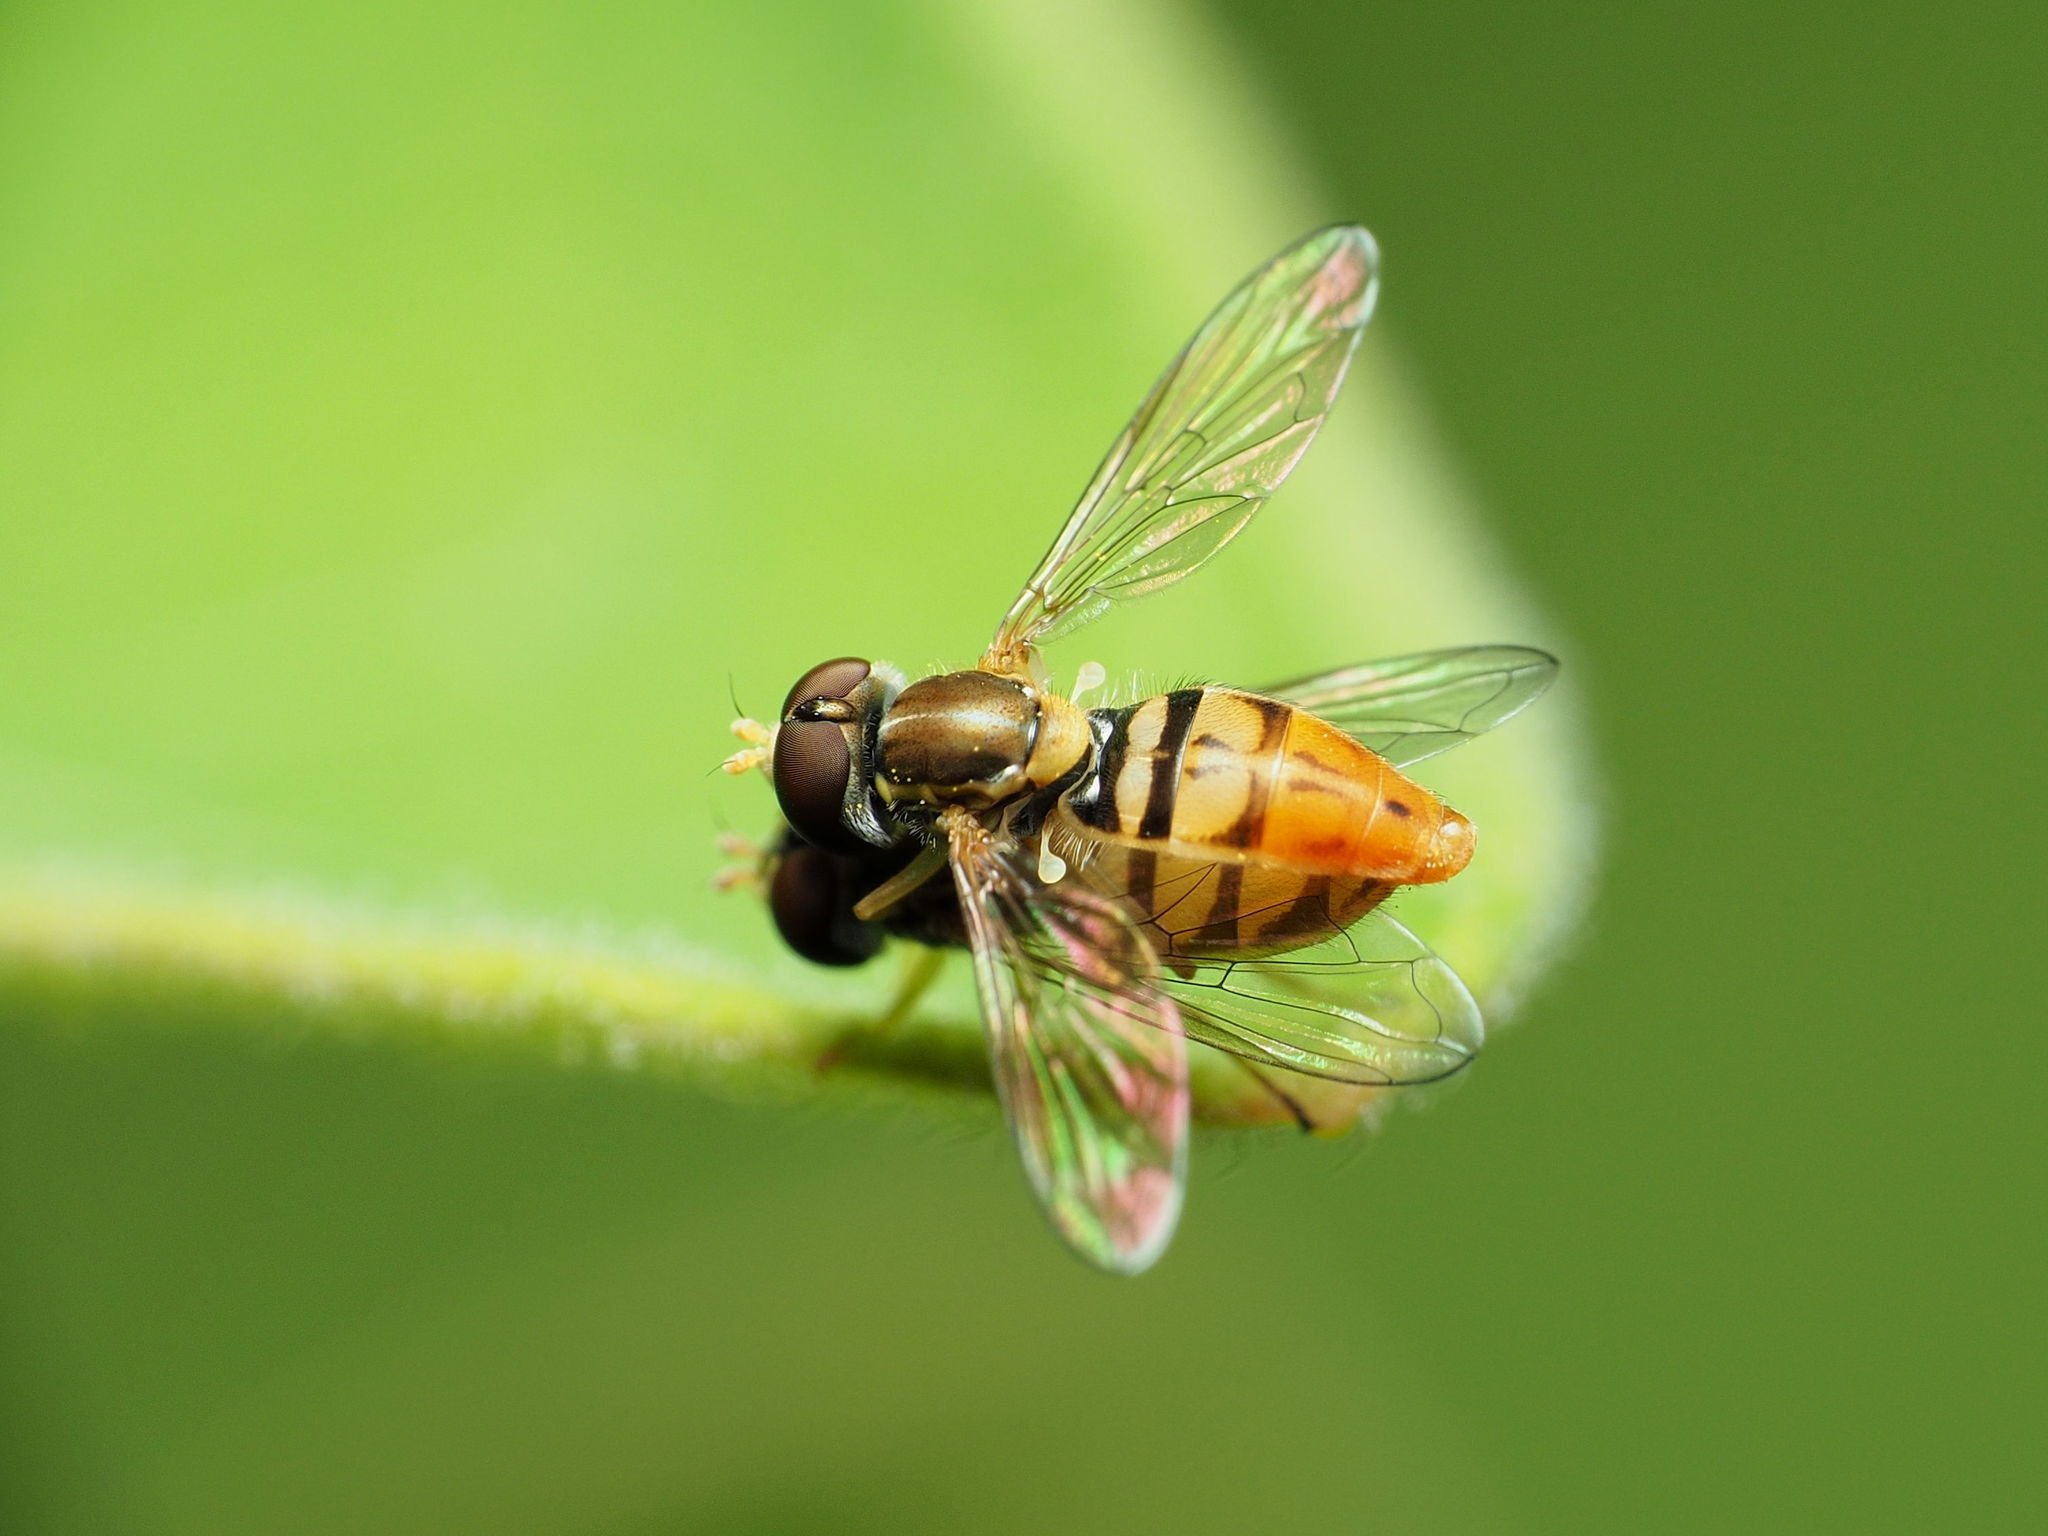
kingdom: Animalia
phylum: Arthropoda
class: Insecta
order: Diptera
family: Syrphidae
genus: Toxomerus
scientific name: Toxomerus marginatus
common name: Syrphid fly
